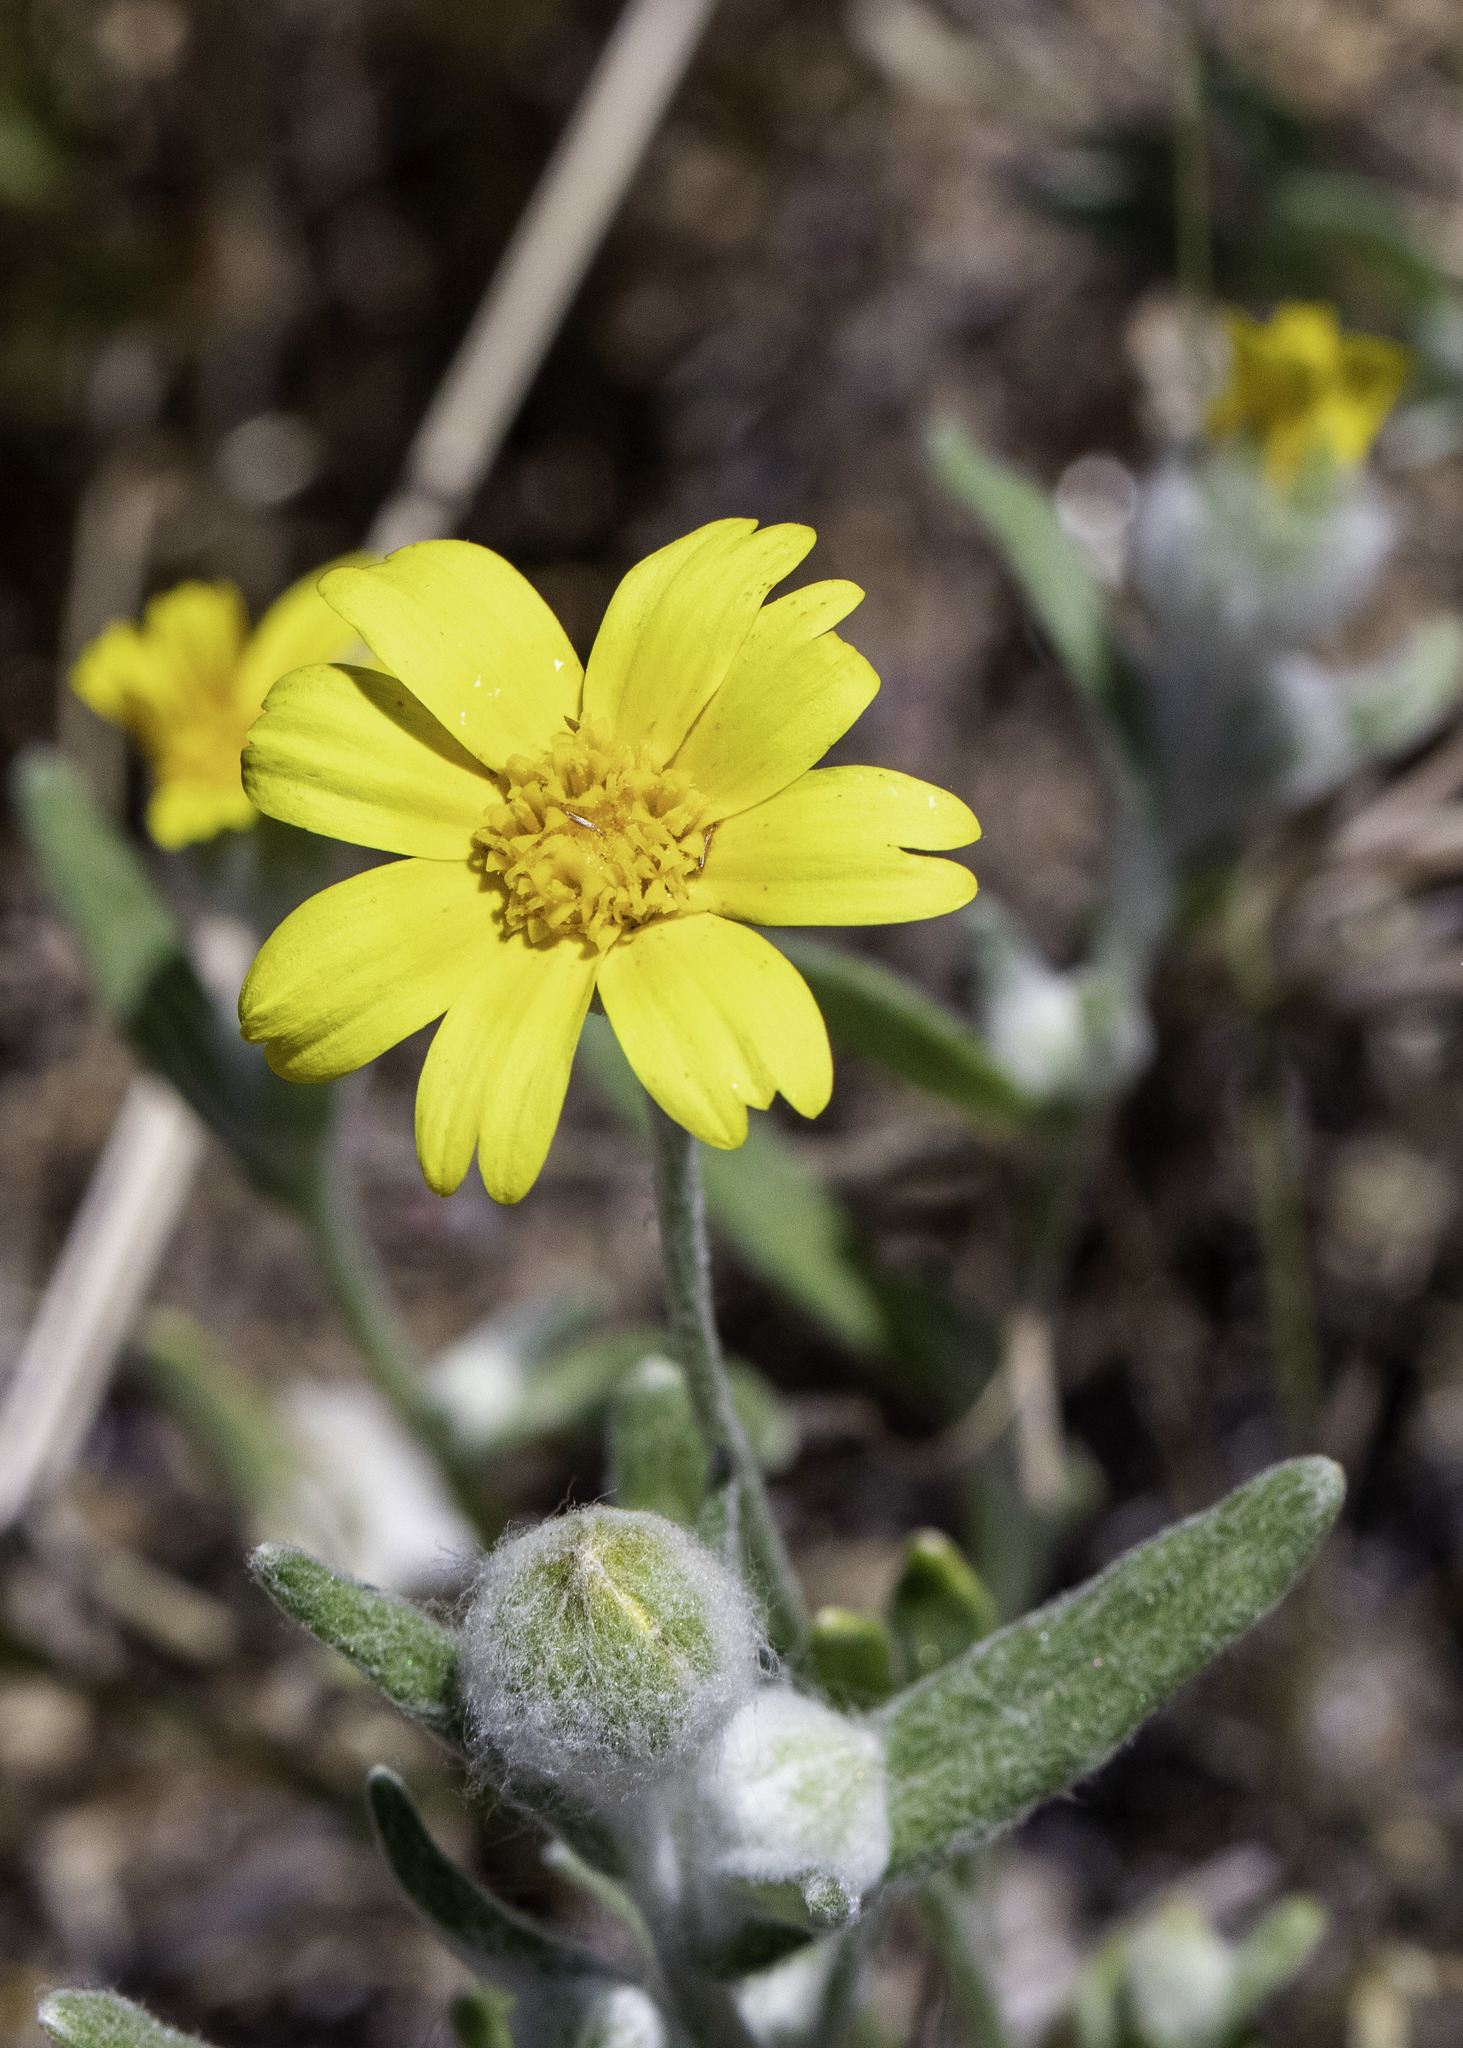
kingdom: Plantae
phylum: Tracheophyta
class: Magnoliopsida
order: Asterales
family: Asteraceae
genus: Monolopia
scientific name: Monolopia lanceolata
